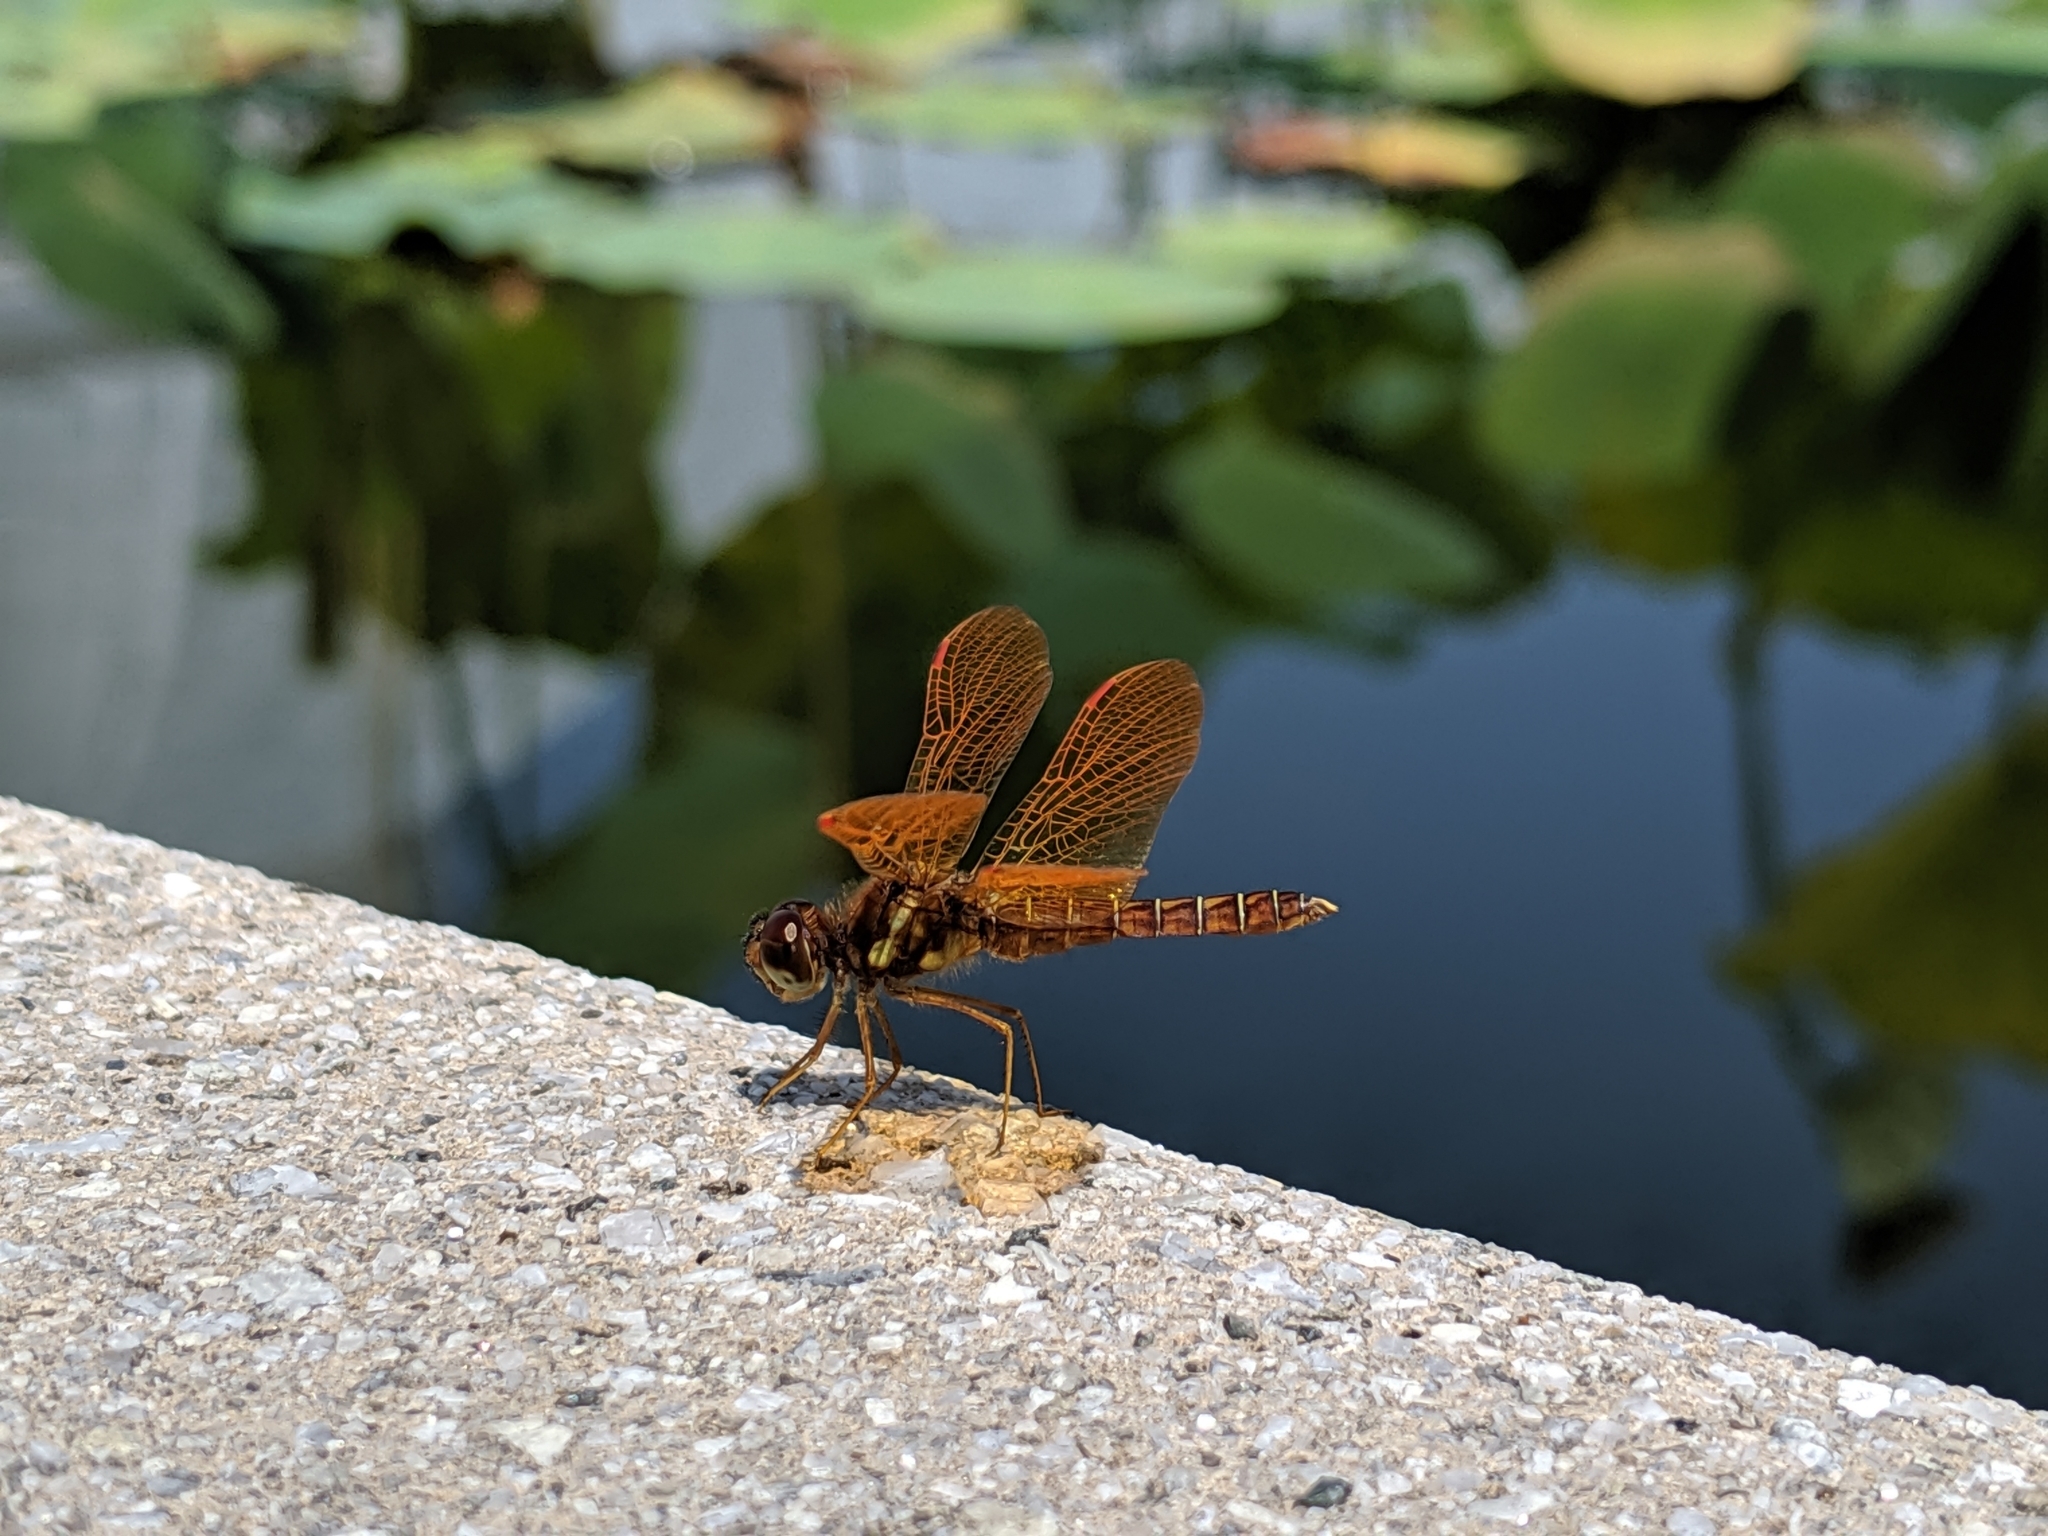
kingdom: Animalia
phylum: Arthropoda
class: Insecta
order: Odonata
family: Libellulidae
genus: Perithemis
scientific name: Perithemis tenera
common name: Eastern amberwing
